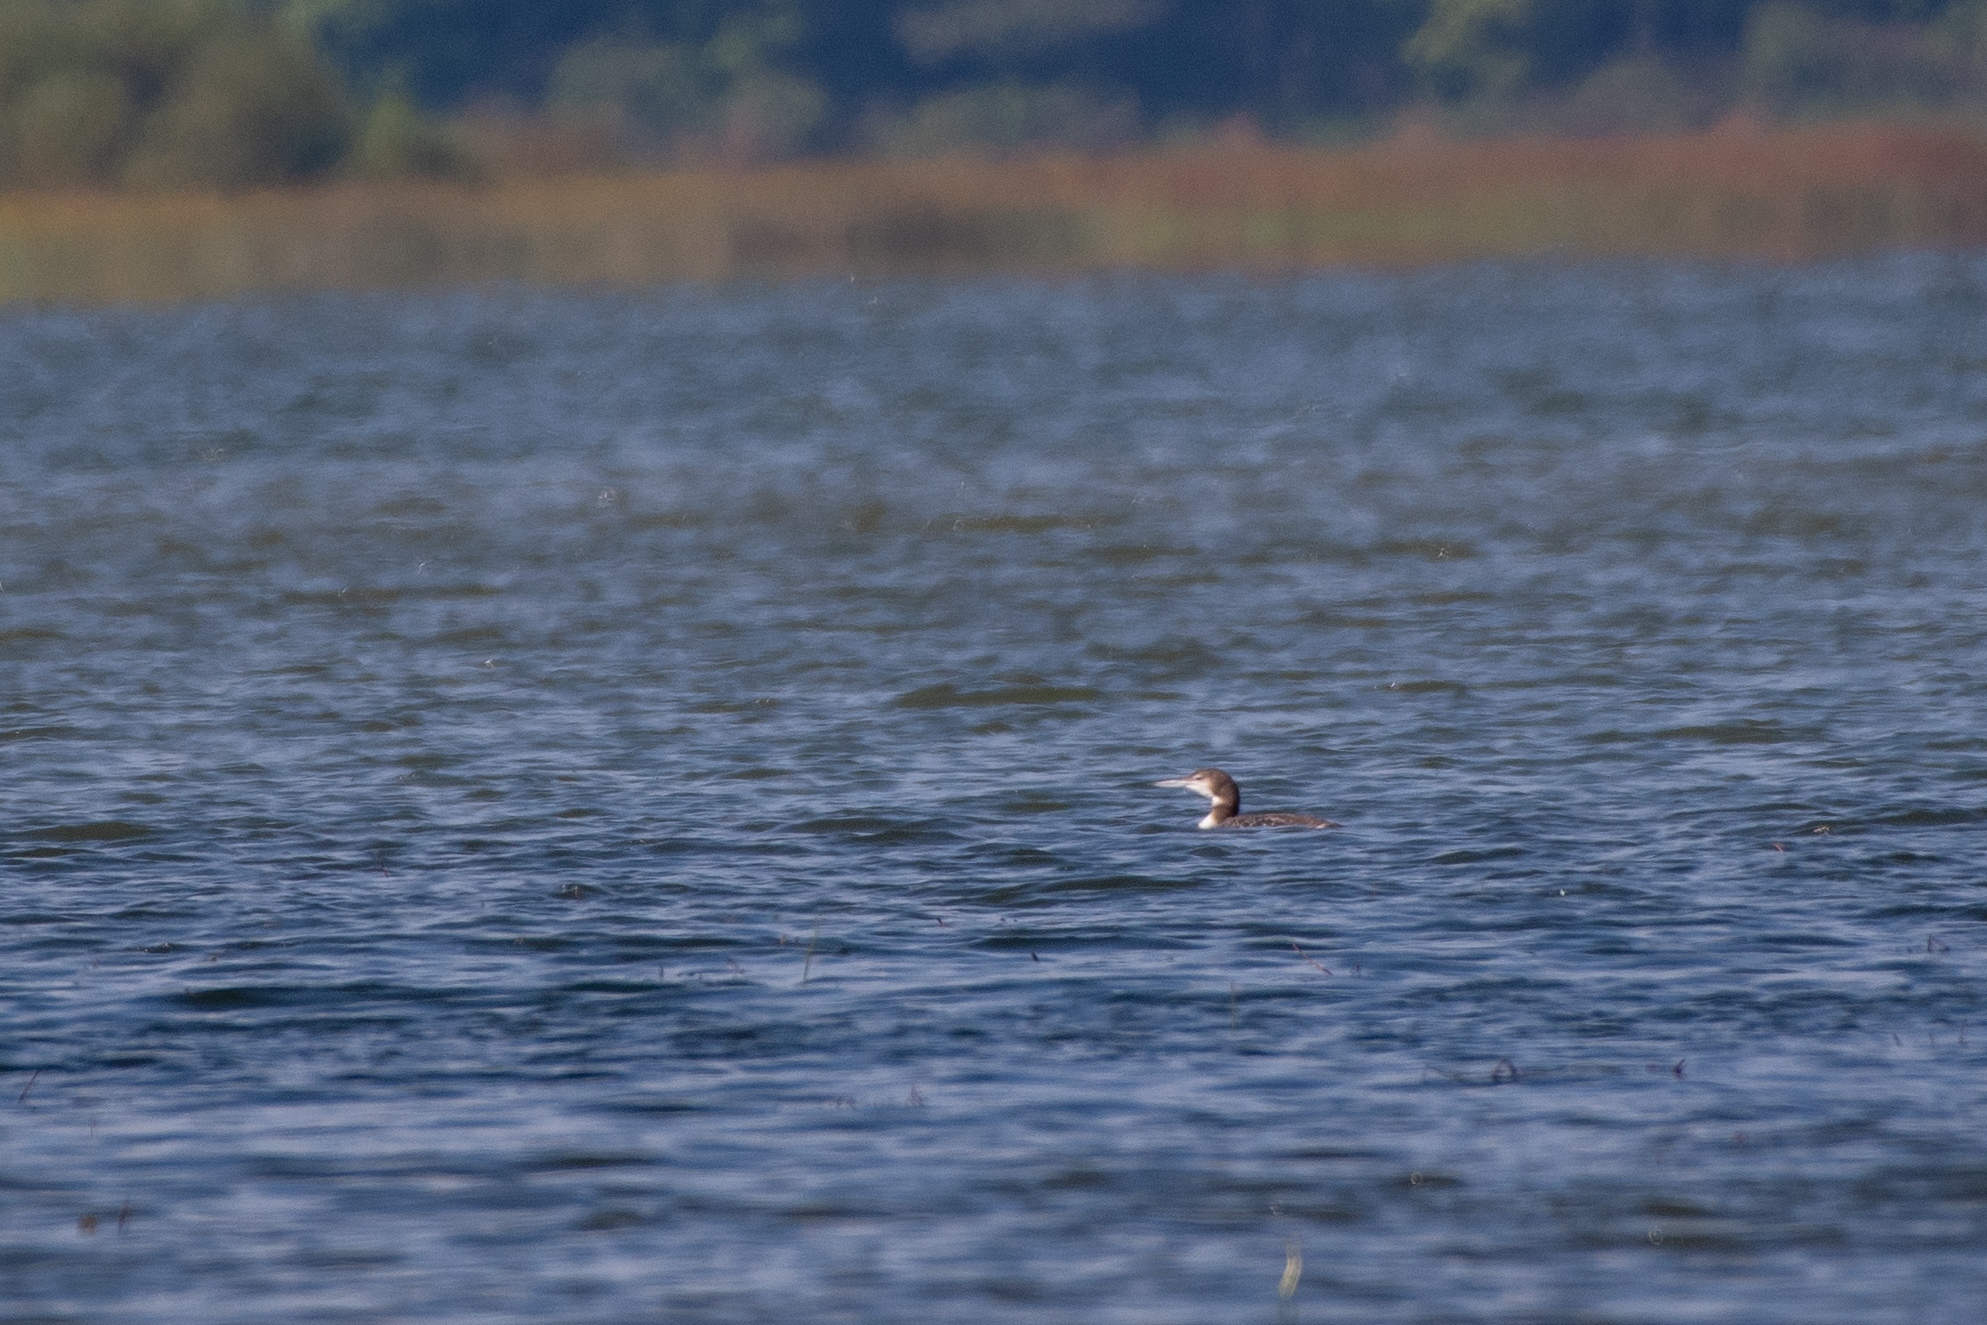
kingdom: Animalia
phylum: Chordata
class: Aves
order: Gaviiformes
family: Gaviidae
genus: Gavia
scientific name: Gavia immer
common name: Common loon
